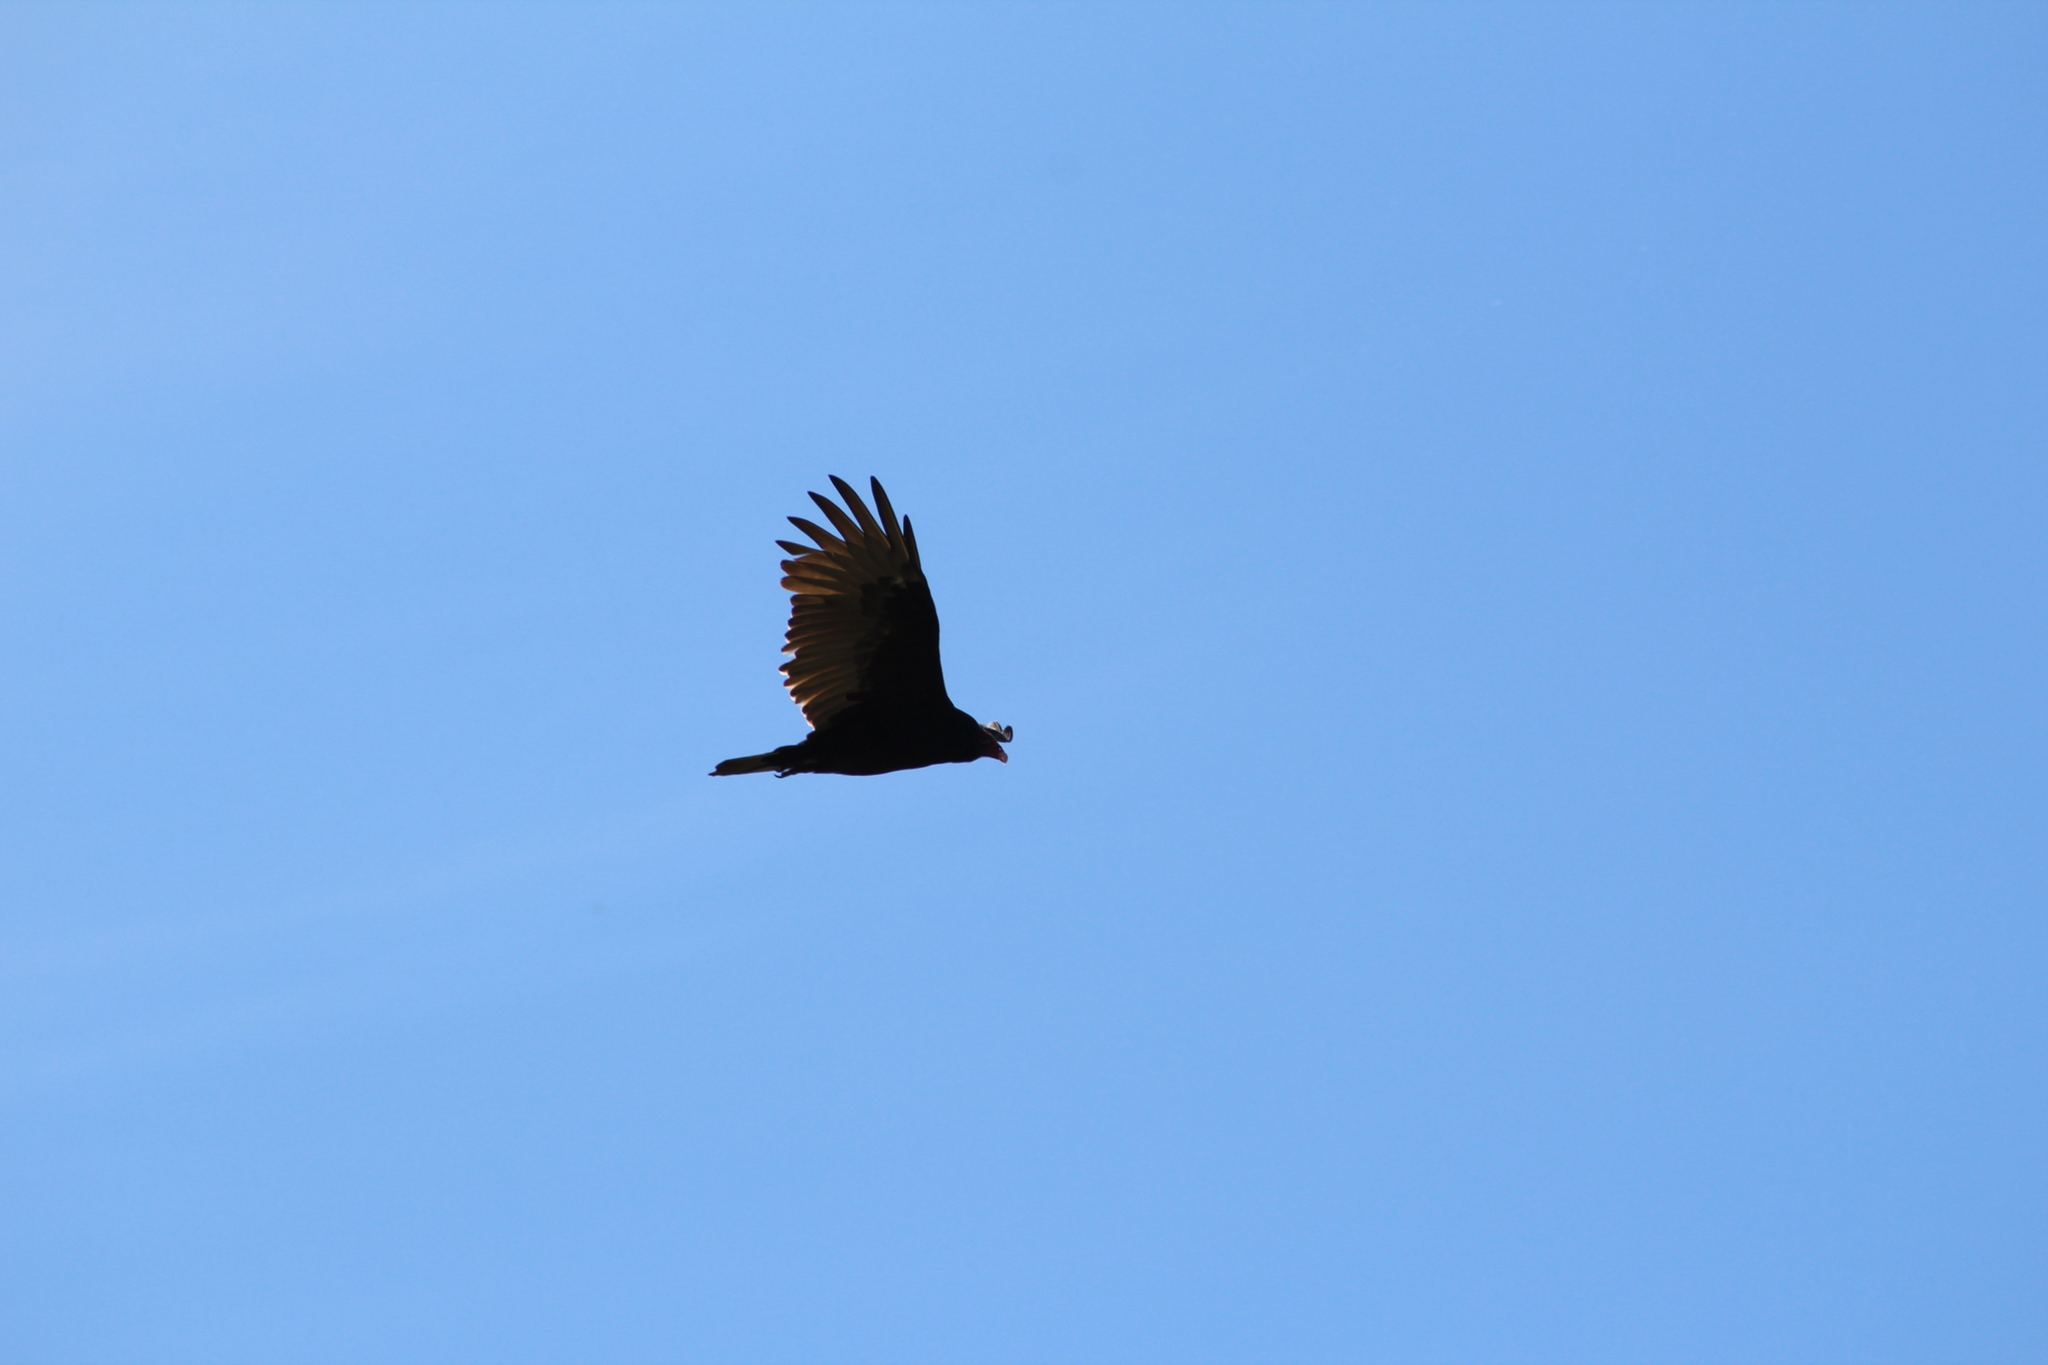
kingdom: Animalia
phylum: Chordata
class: Aves
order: Accipitriformes
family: Cathartidae
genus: Cathartes
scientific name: Cathartes aura
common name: Turkey vulture
